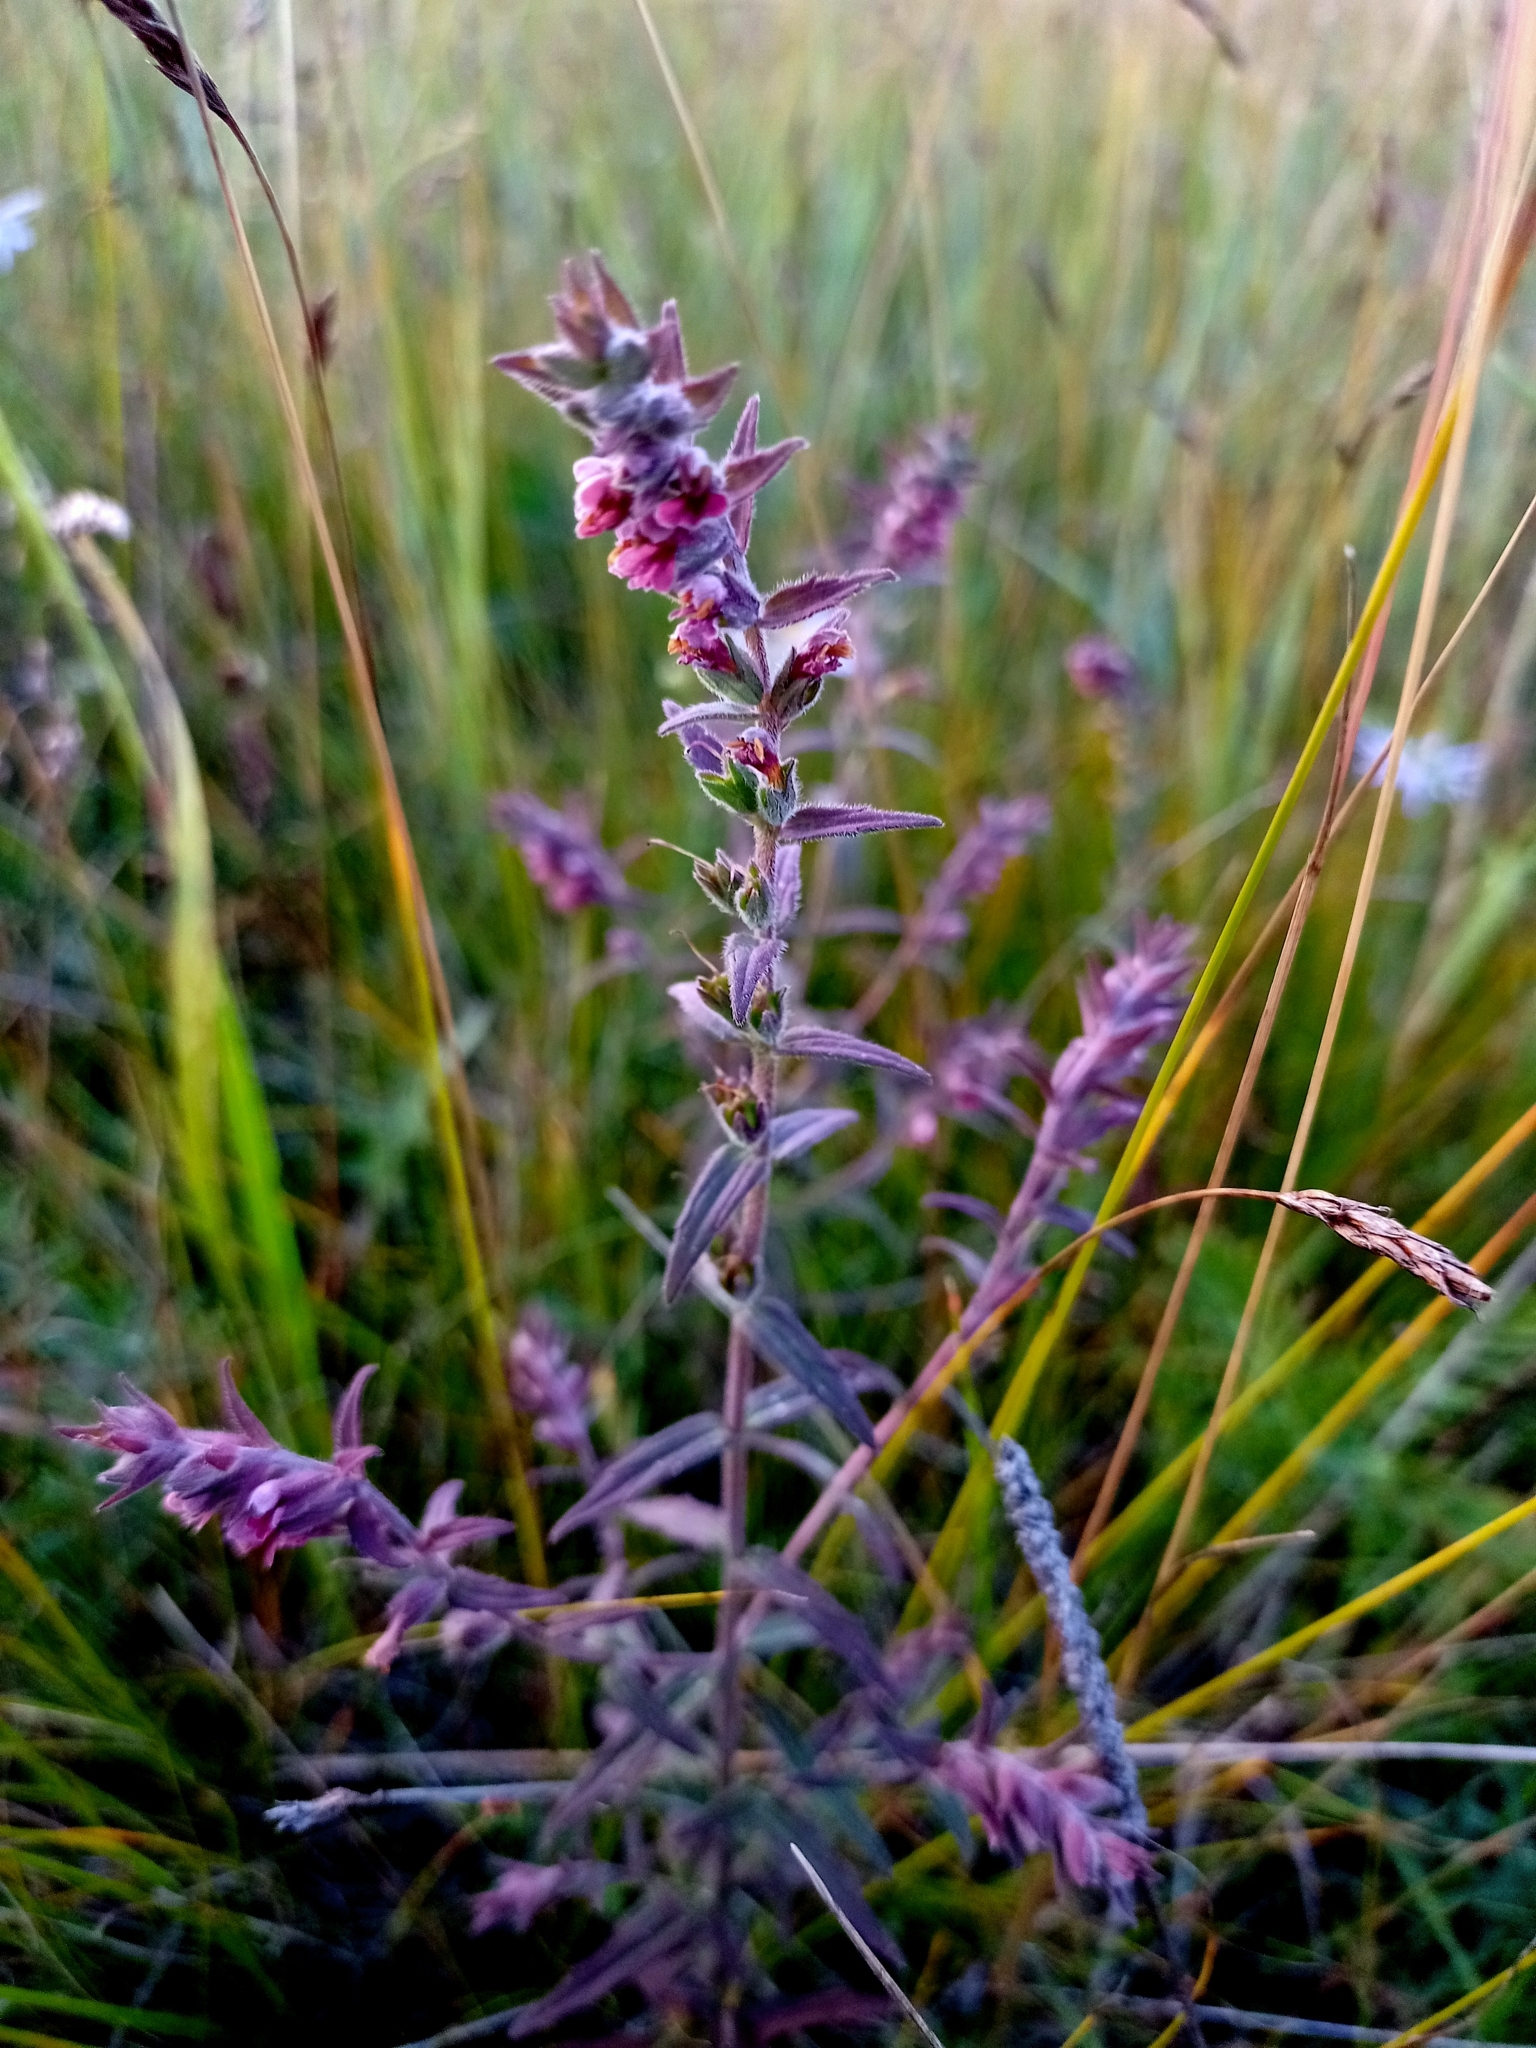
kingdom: Plantae
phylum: Tracheophyta
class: Magnoliopsida
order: Lamiales
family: Orobanchaceae
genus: Odontites
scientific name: Odontites vulgaris
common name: Broomrape
